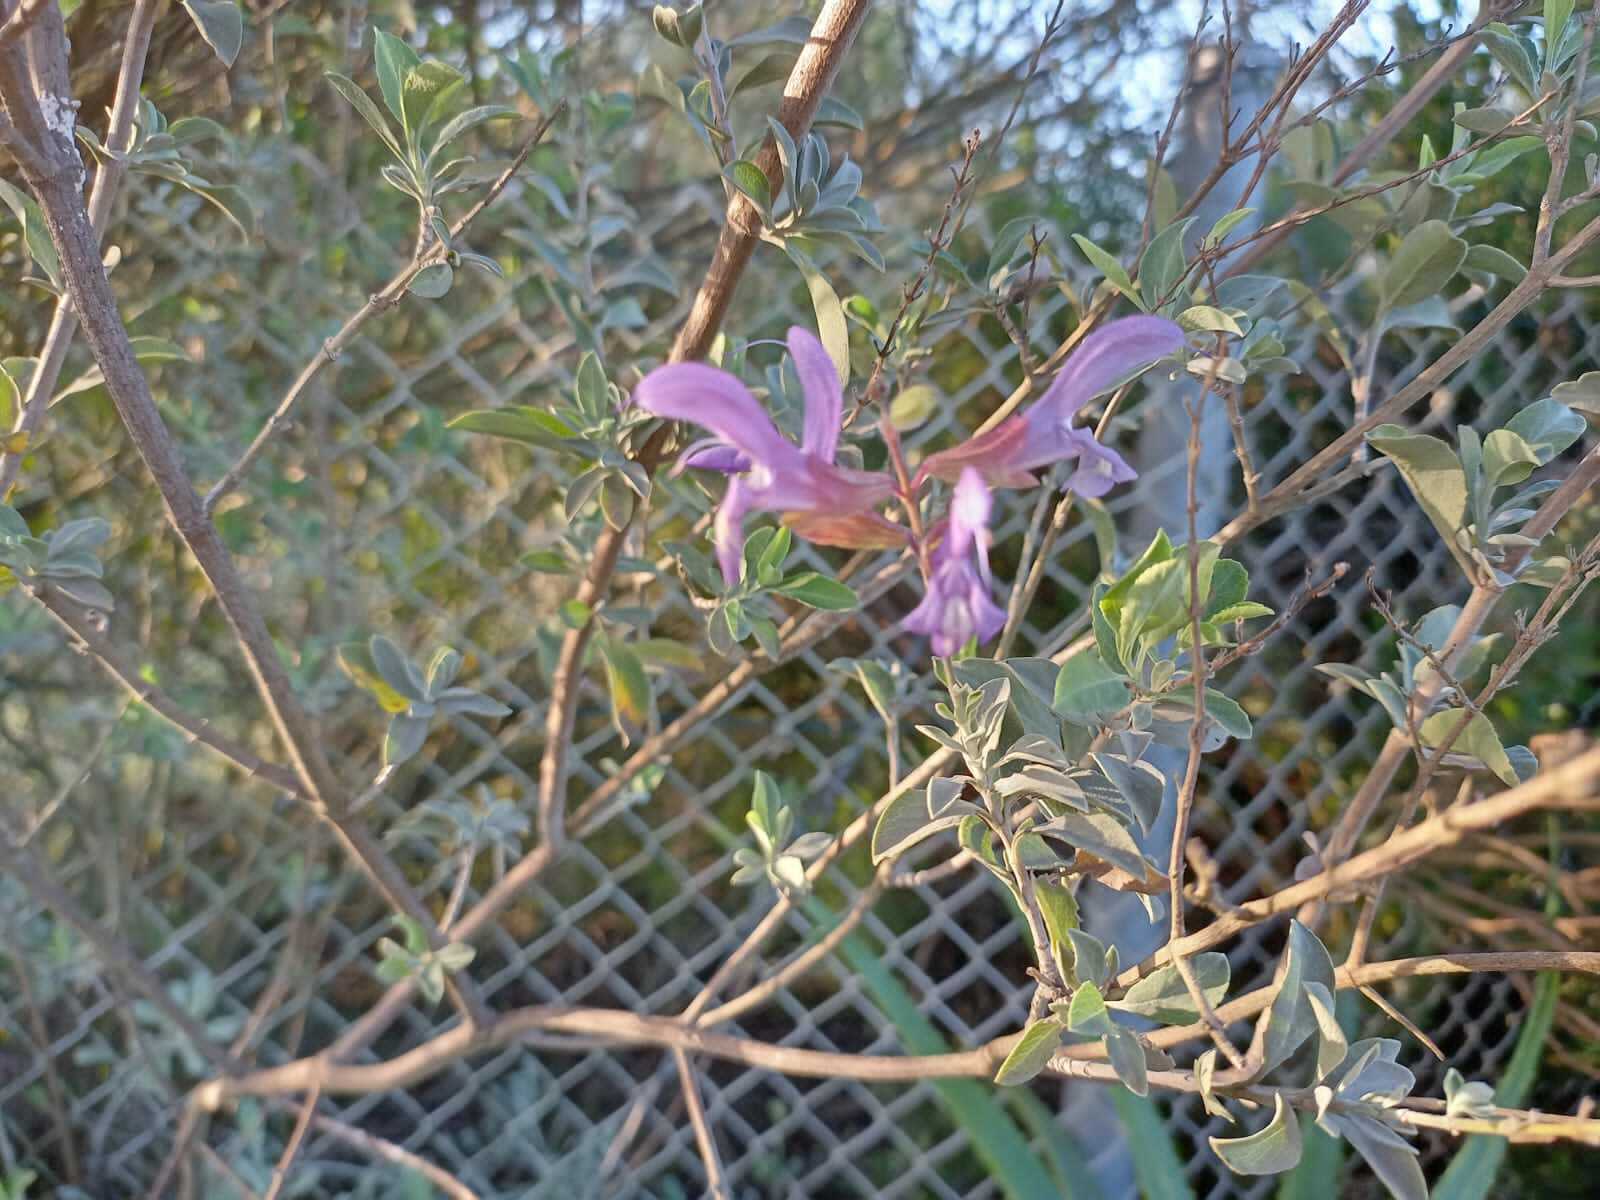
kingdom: Plantae
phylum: Tracheophyta
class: Magnoliopsida
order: Lamiales
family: Lamiaceae
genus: Salvia
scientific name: Salvia africana
